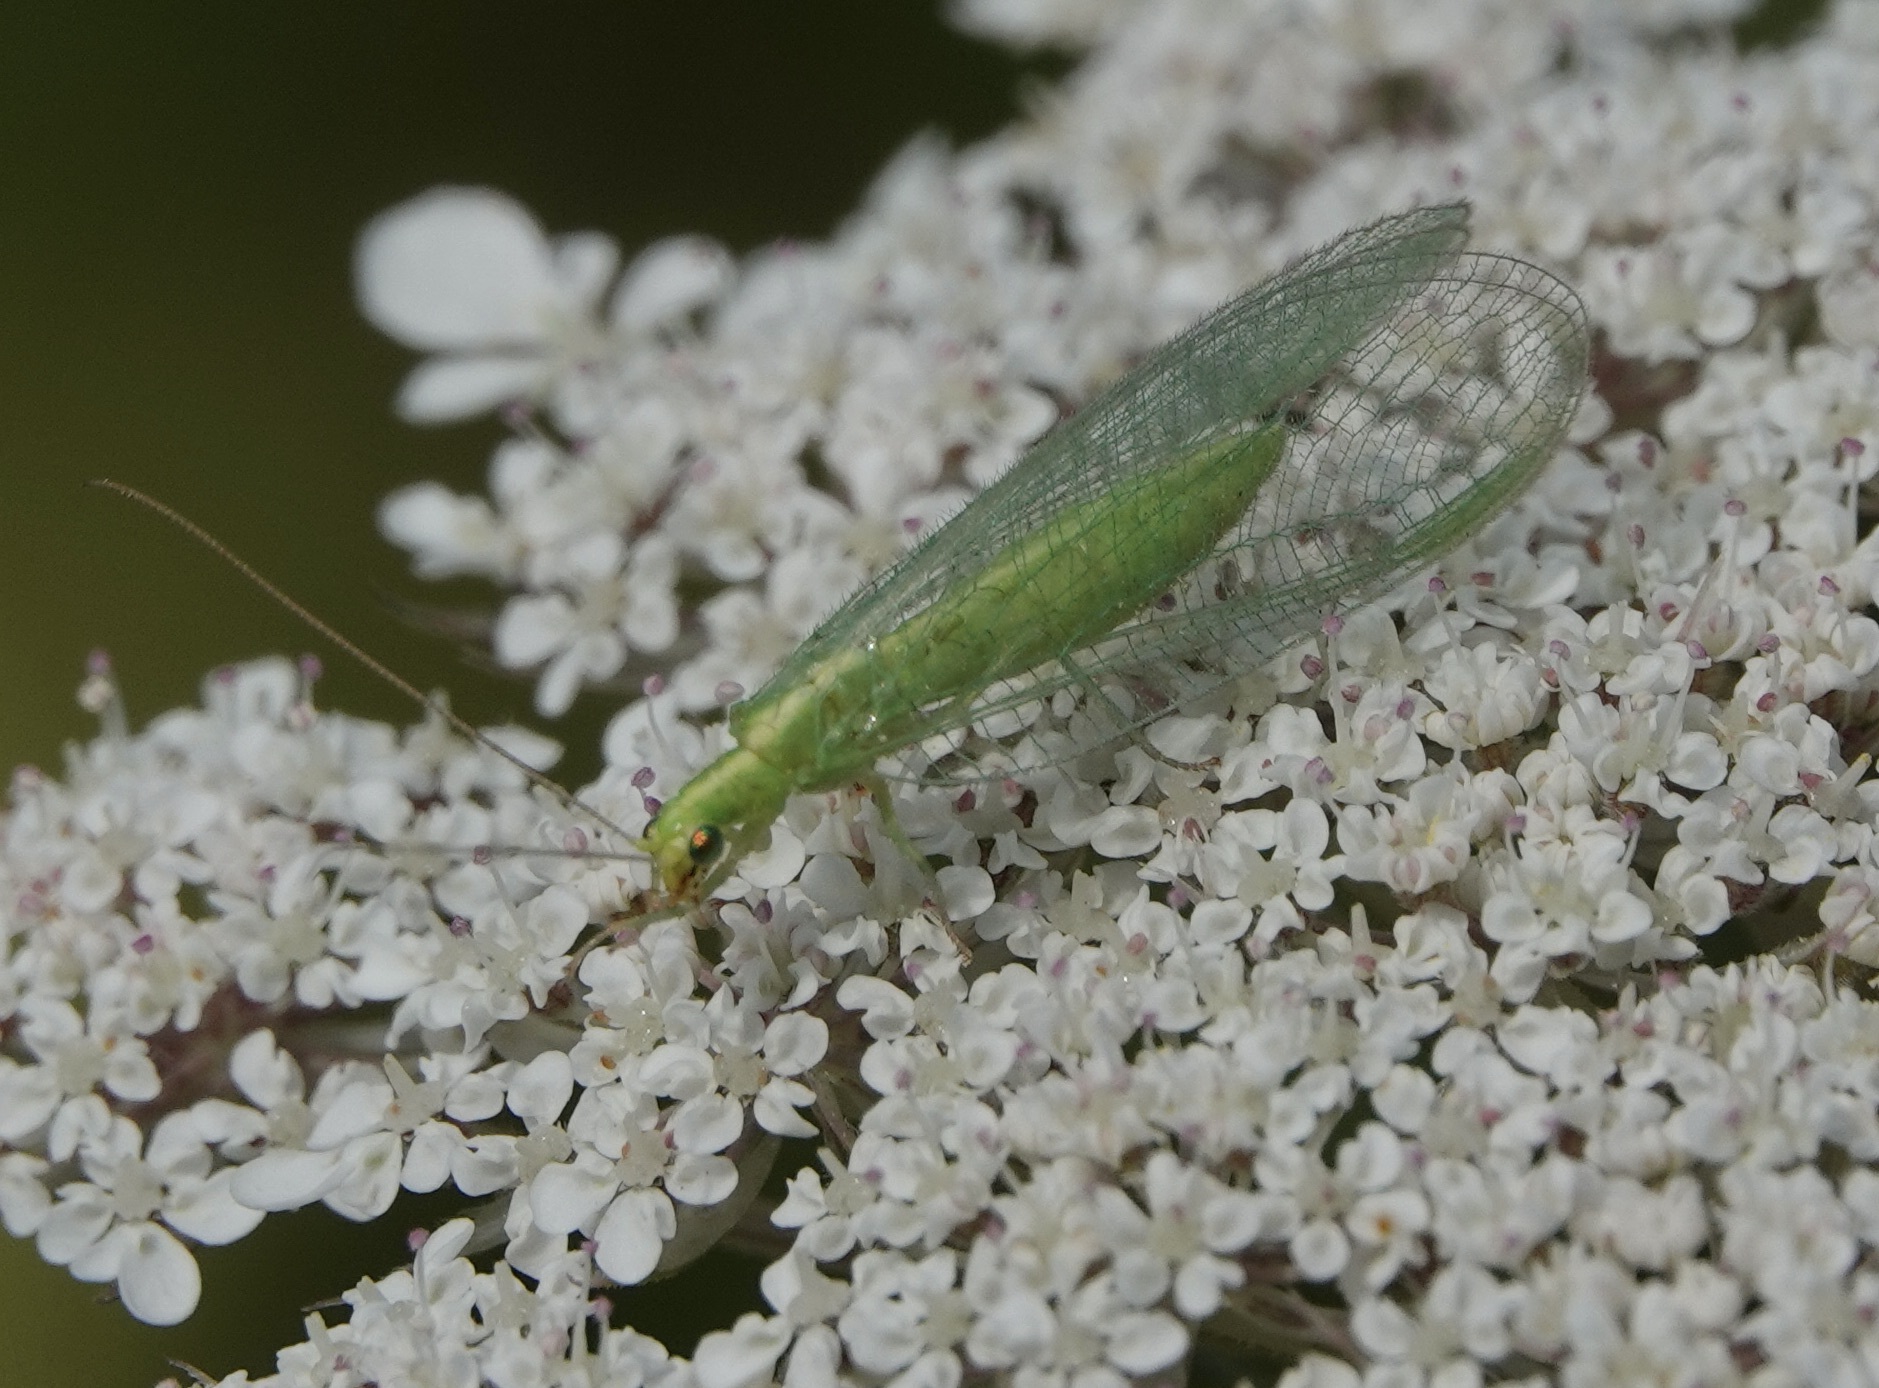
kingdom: Animalia
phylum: Arthropoda
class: Insecta
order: Neuroptera
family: Chrysopidae
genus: Chrysoperla
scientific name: Chrysoperla
